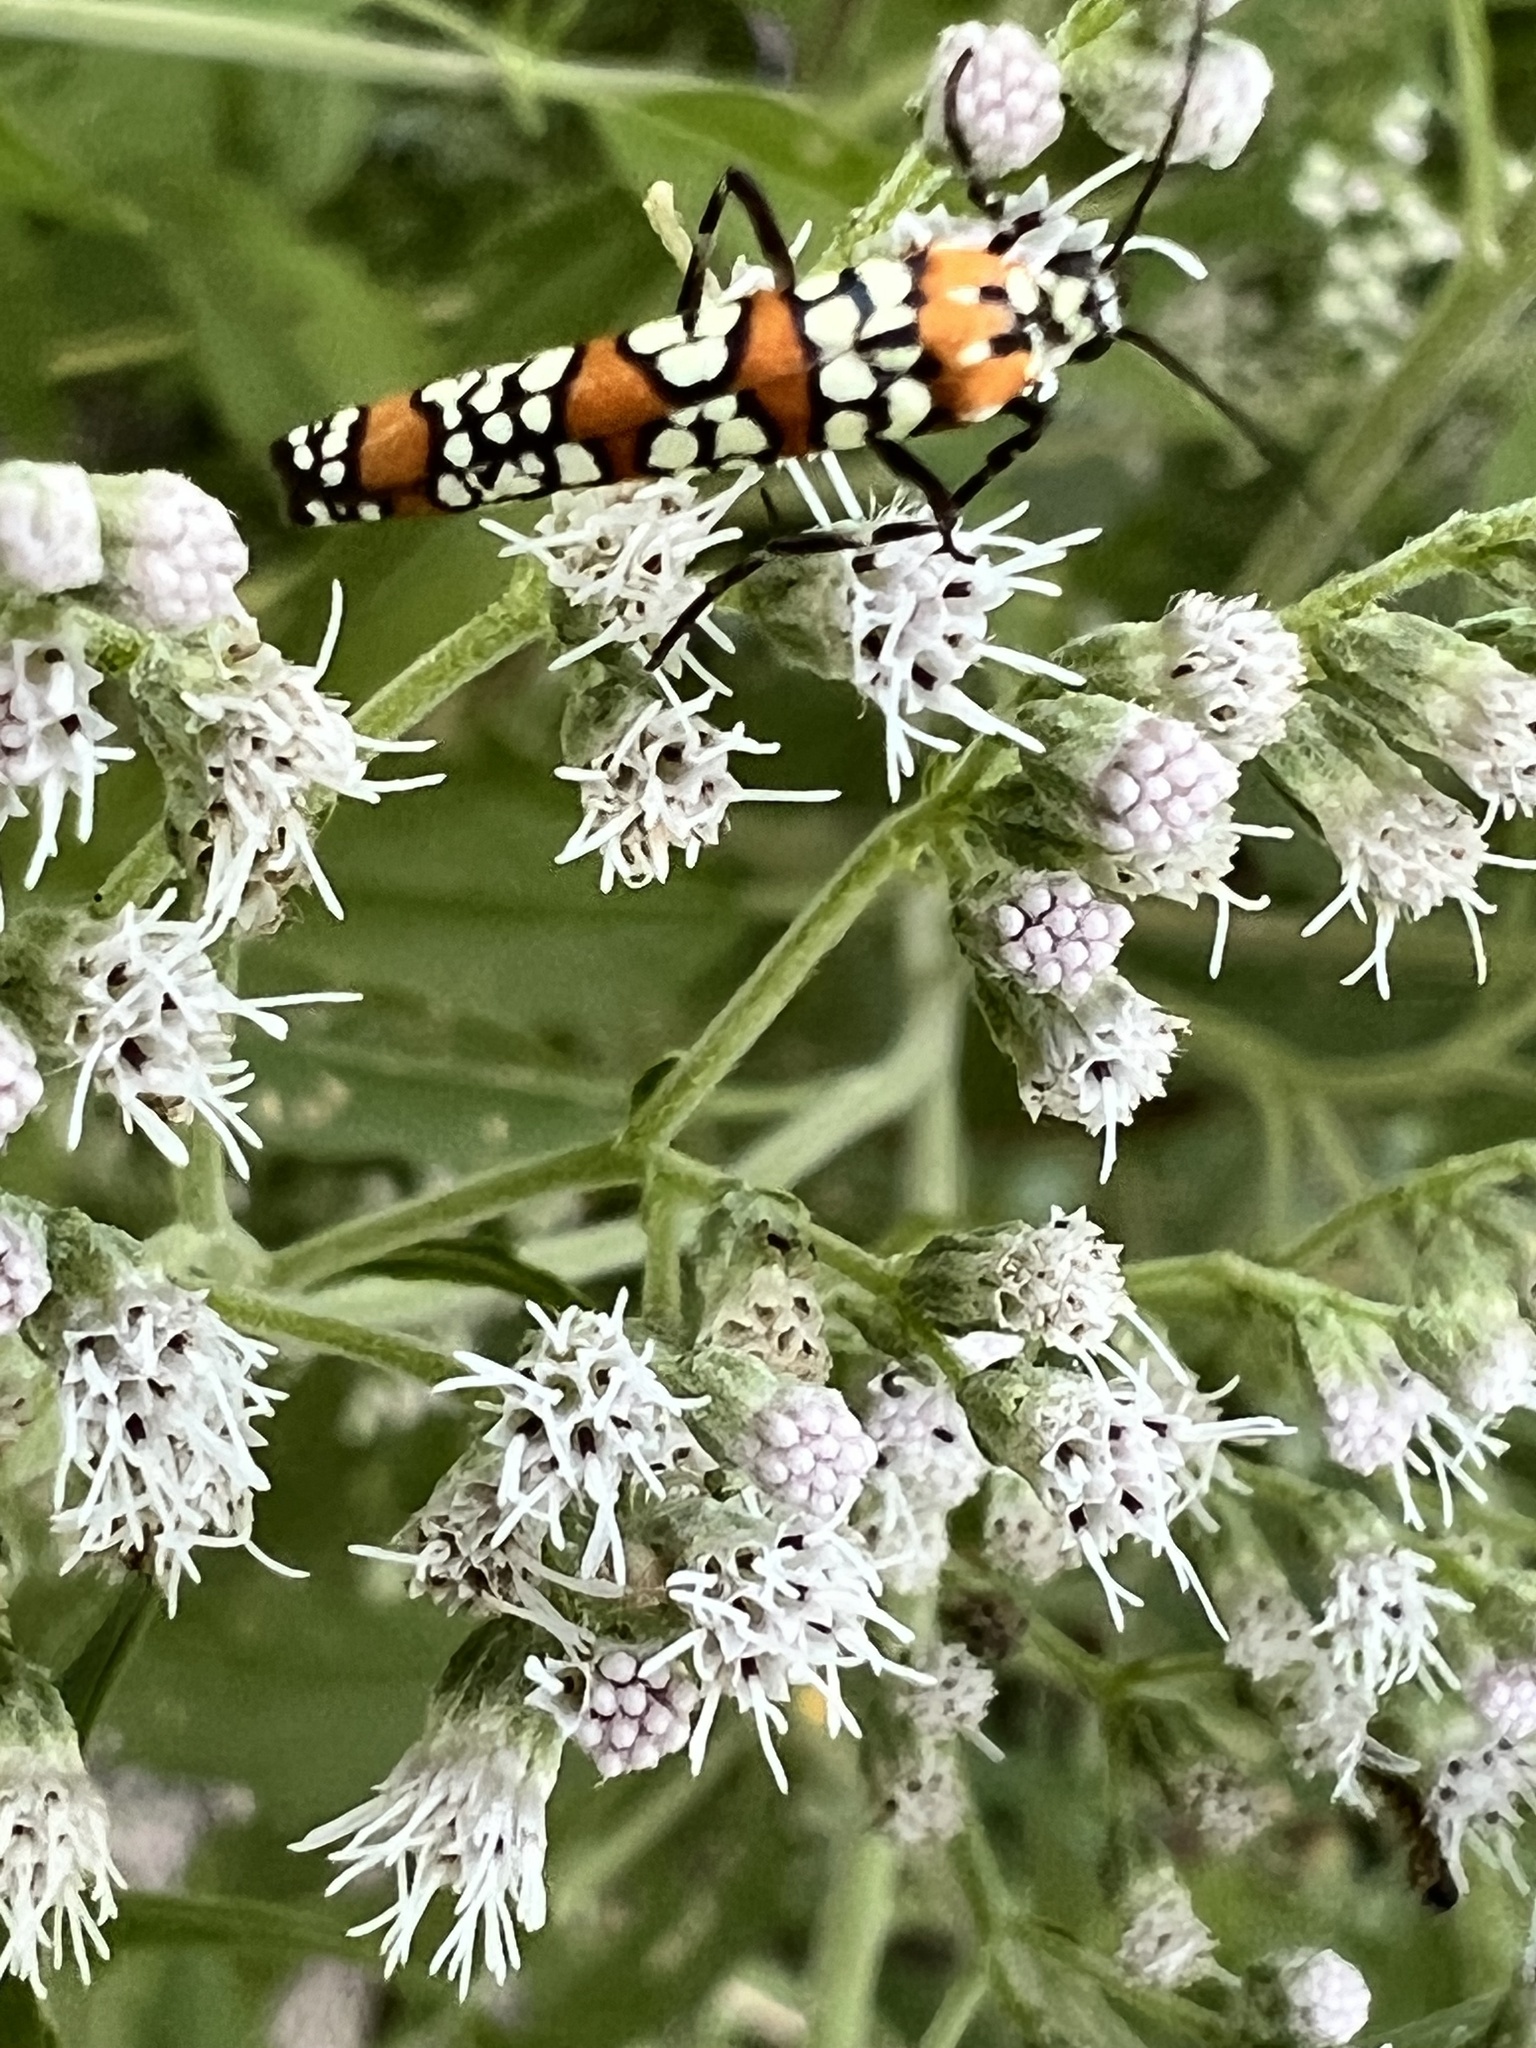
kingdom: Animalia
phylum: Arthropoda
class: Insecta
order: Lepidoptera
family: Attevidae
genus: Atteva
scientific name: Atteva punctella
